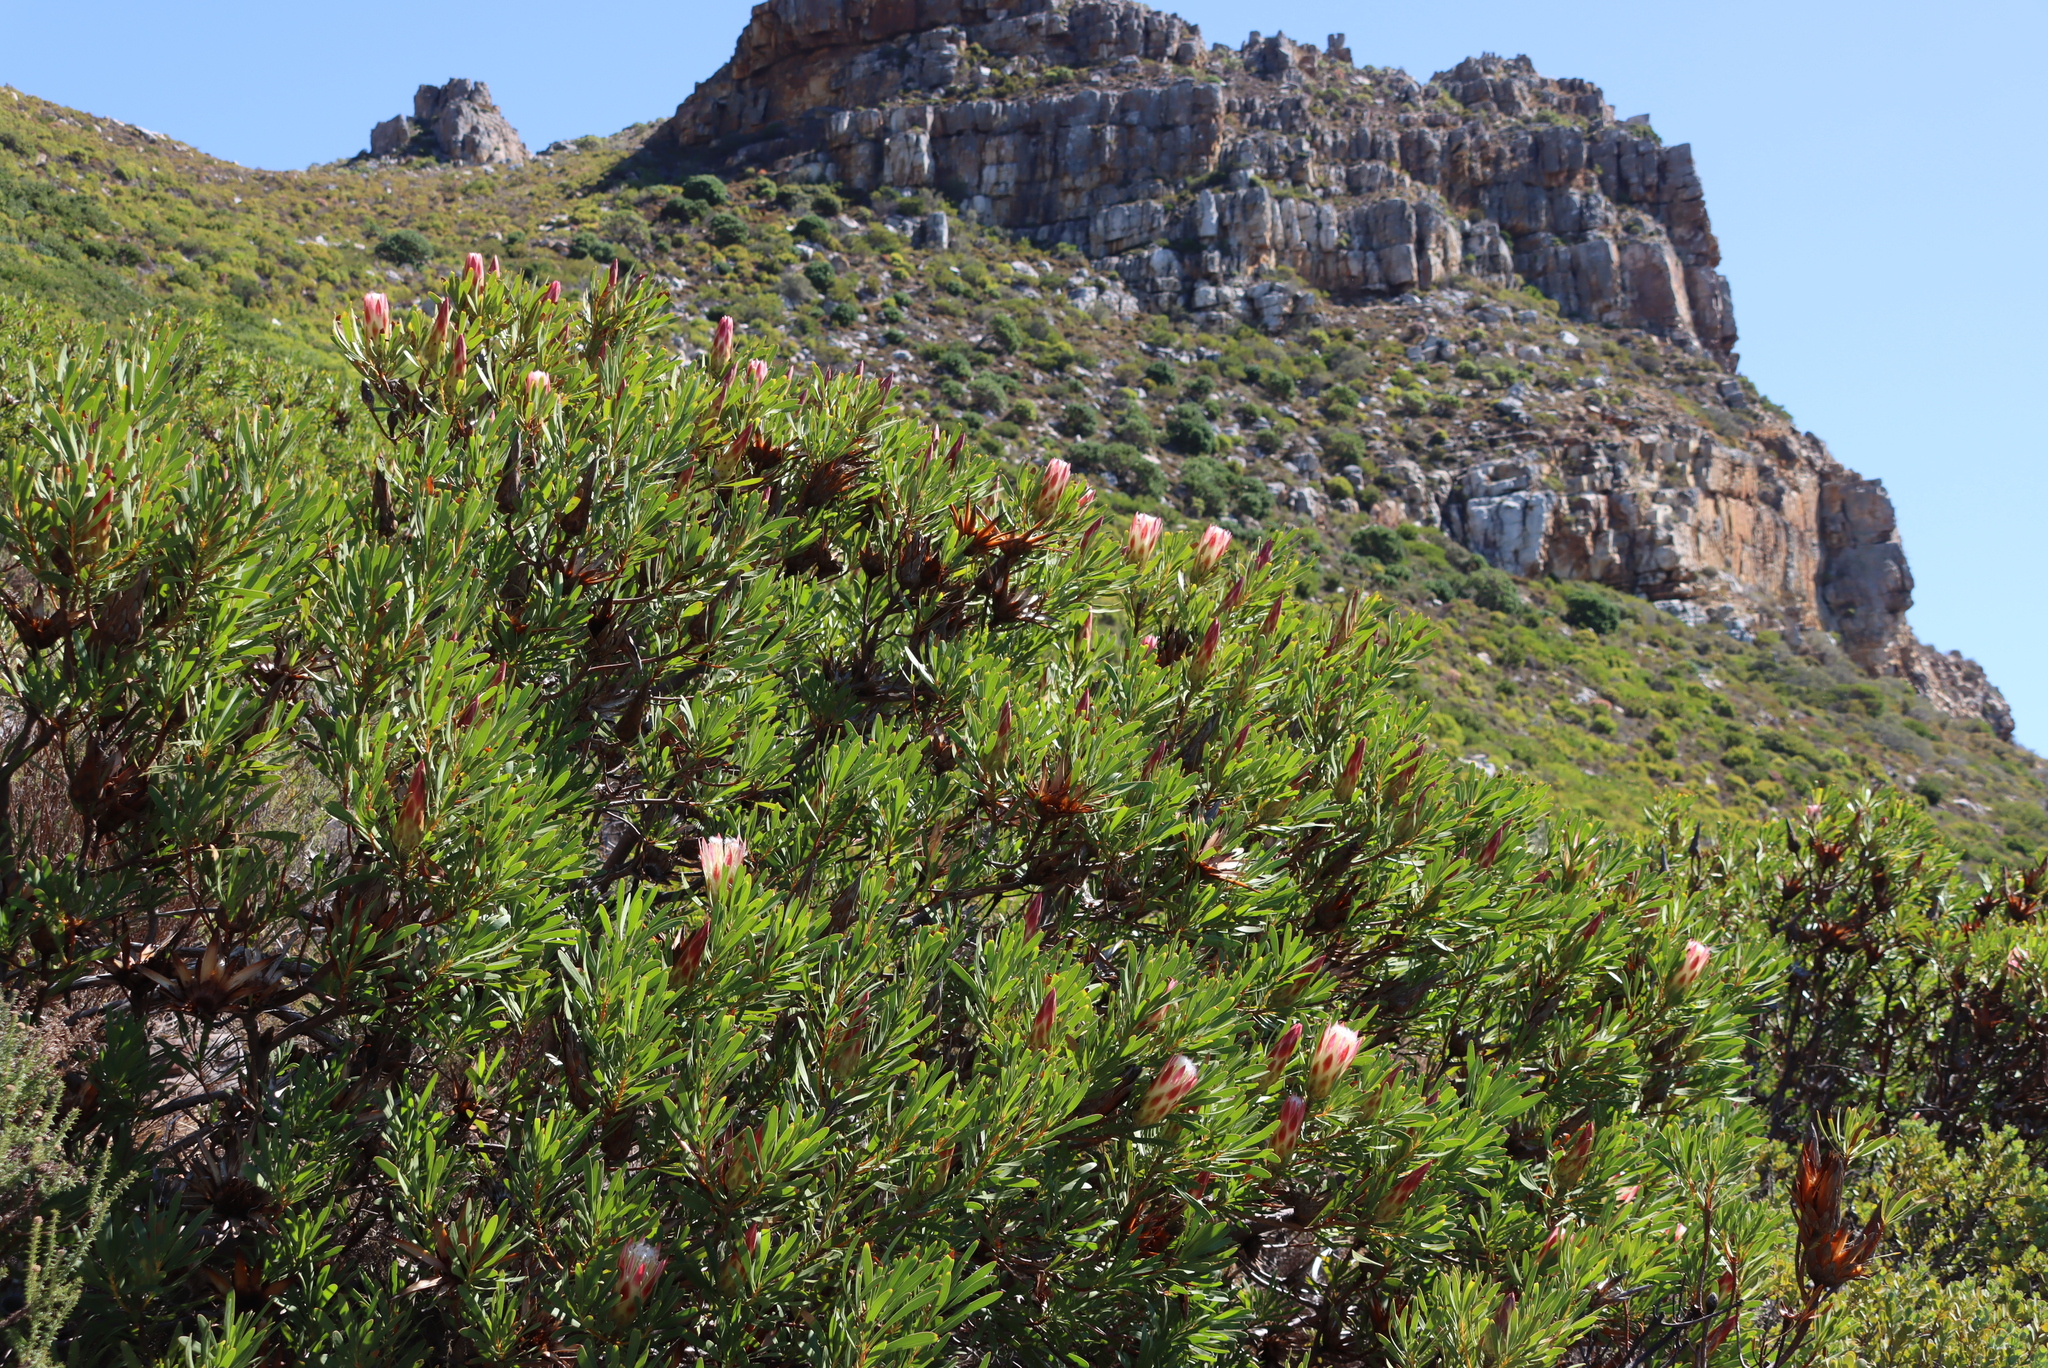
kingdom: Plantae
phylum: Tracheophyta
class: Magnoliopsida
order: Proteales
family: Proteaceae
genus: Protea
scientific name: Protea repens
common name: Sugarbush
